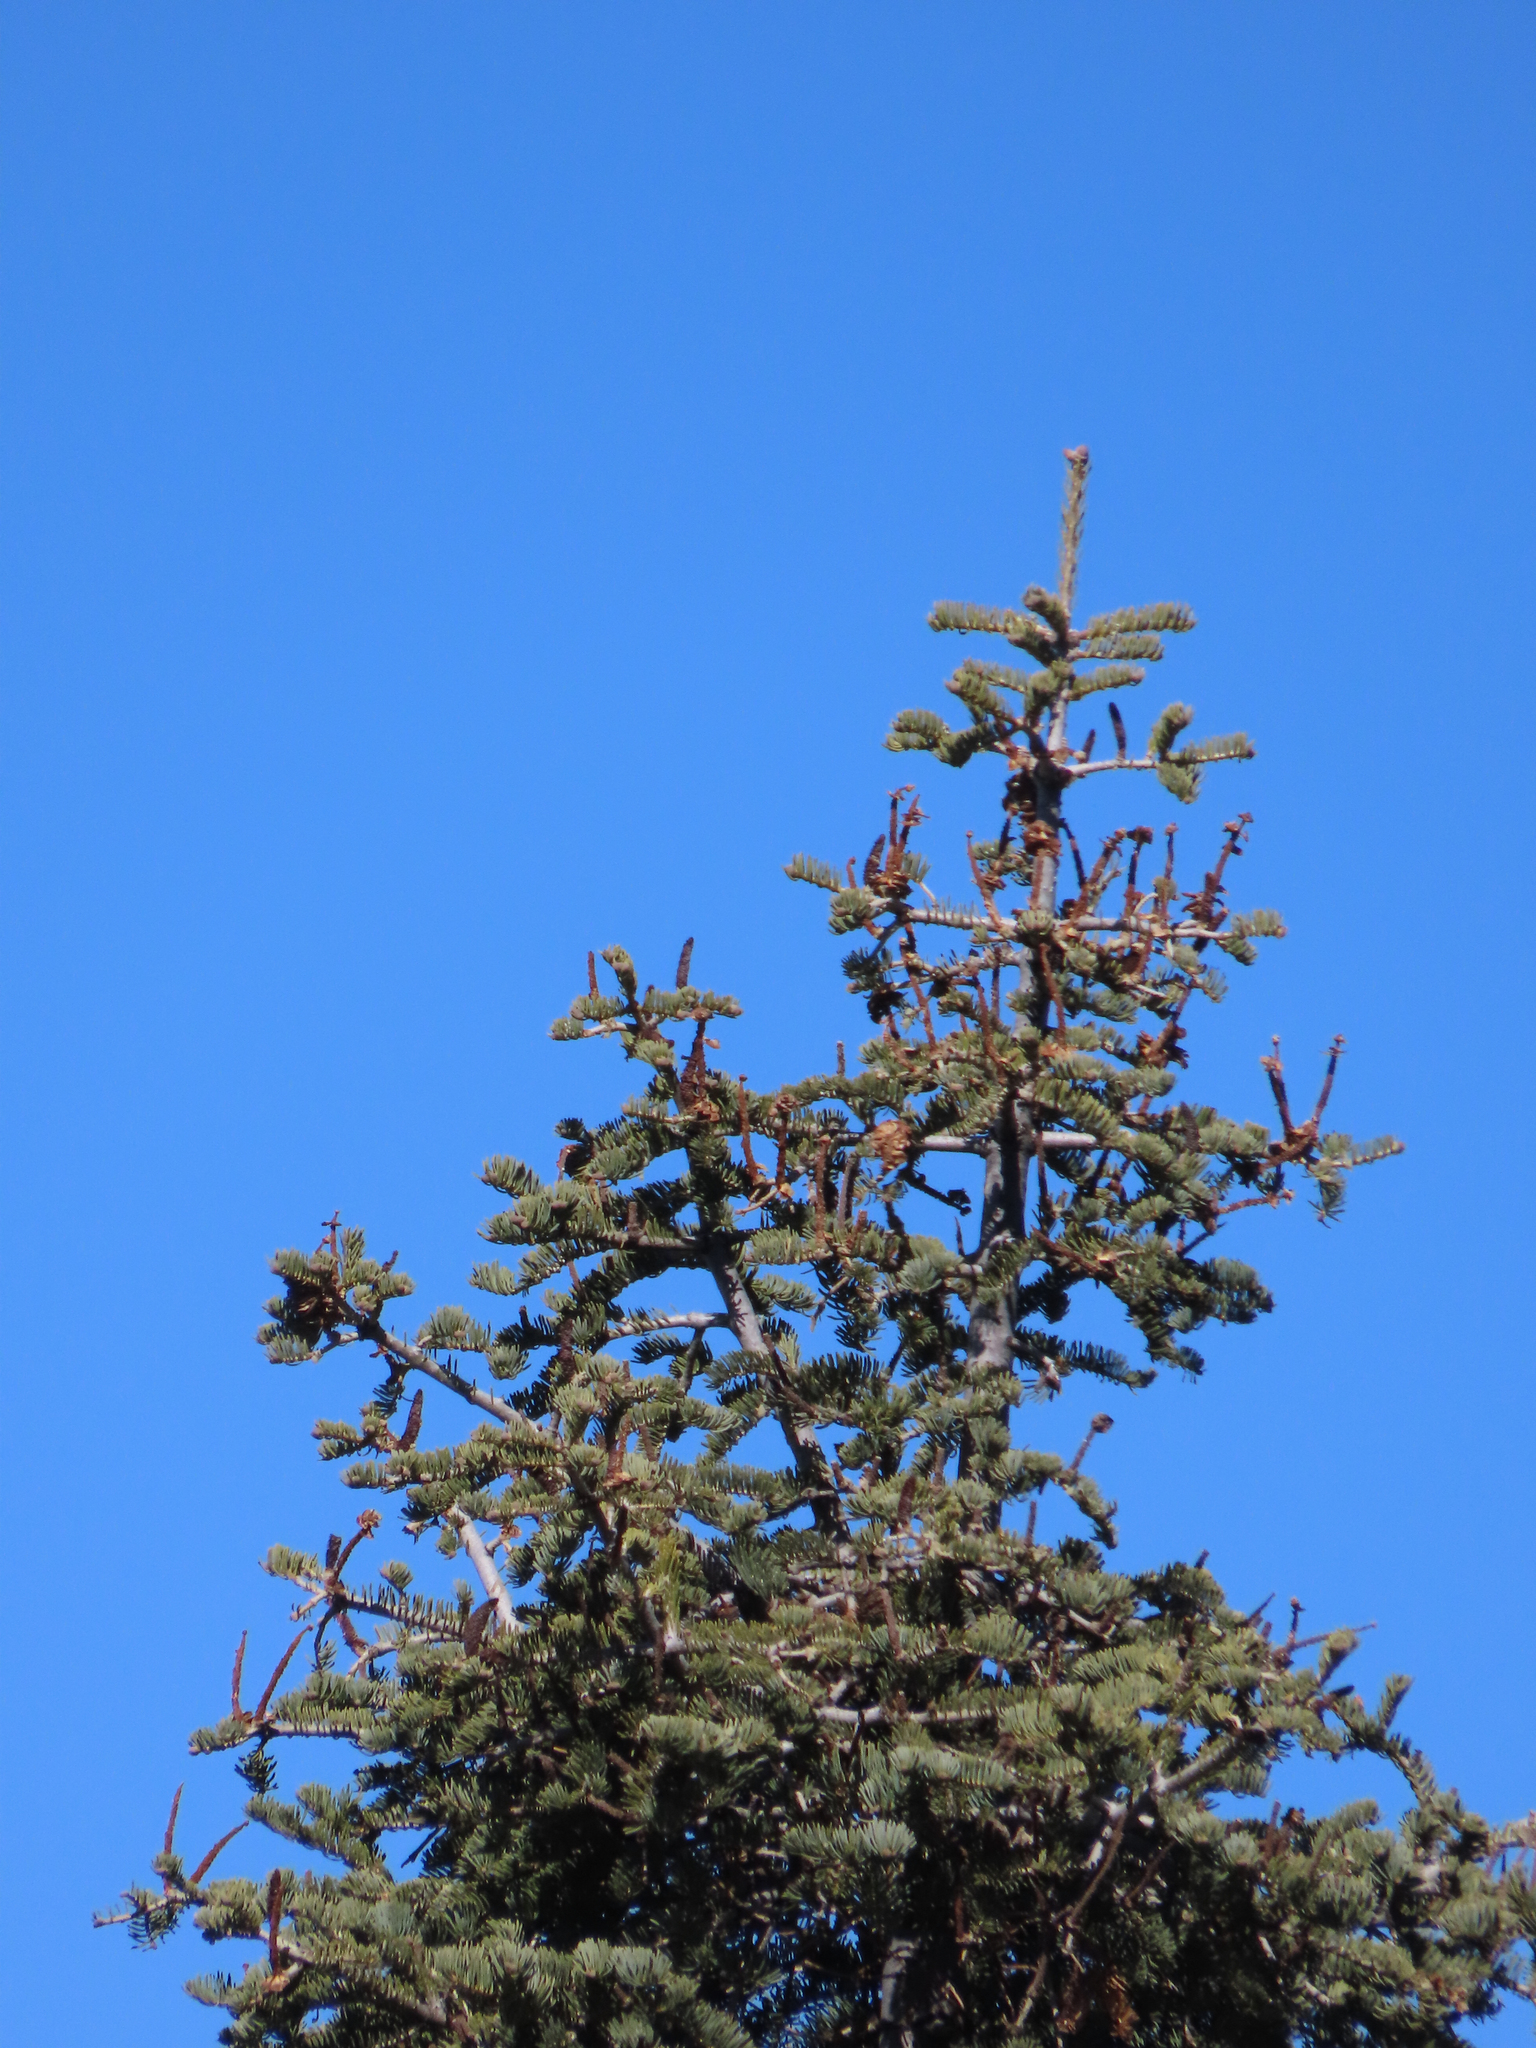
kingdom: Plantae
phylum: Tracheophyta
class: Pinopsida
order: Pinales
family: Pinaceae
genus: Abies
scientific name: Abies concolor
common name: Colorado fir
